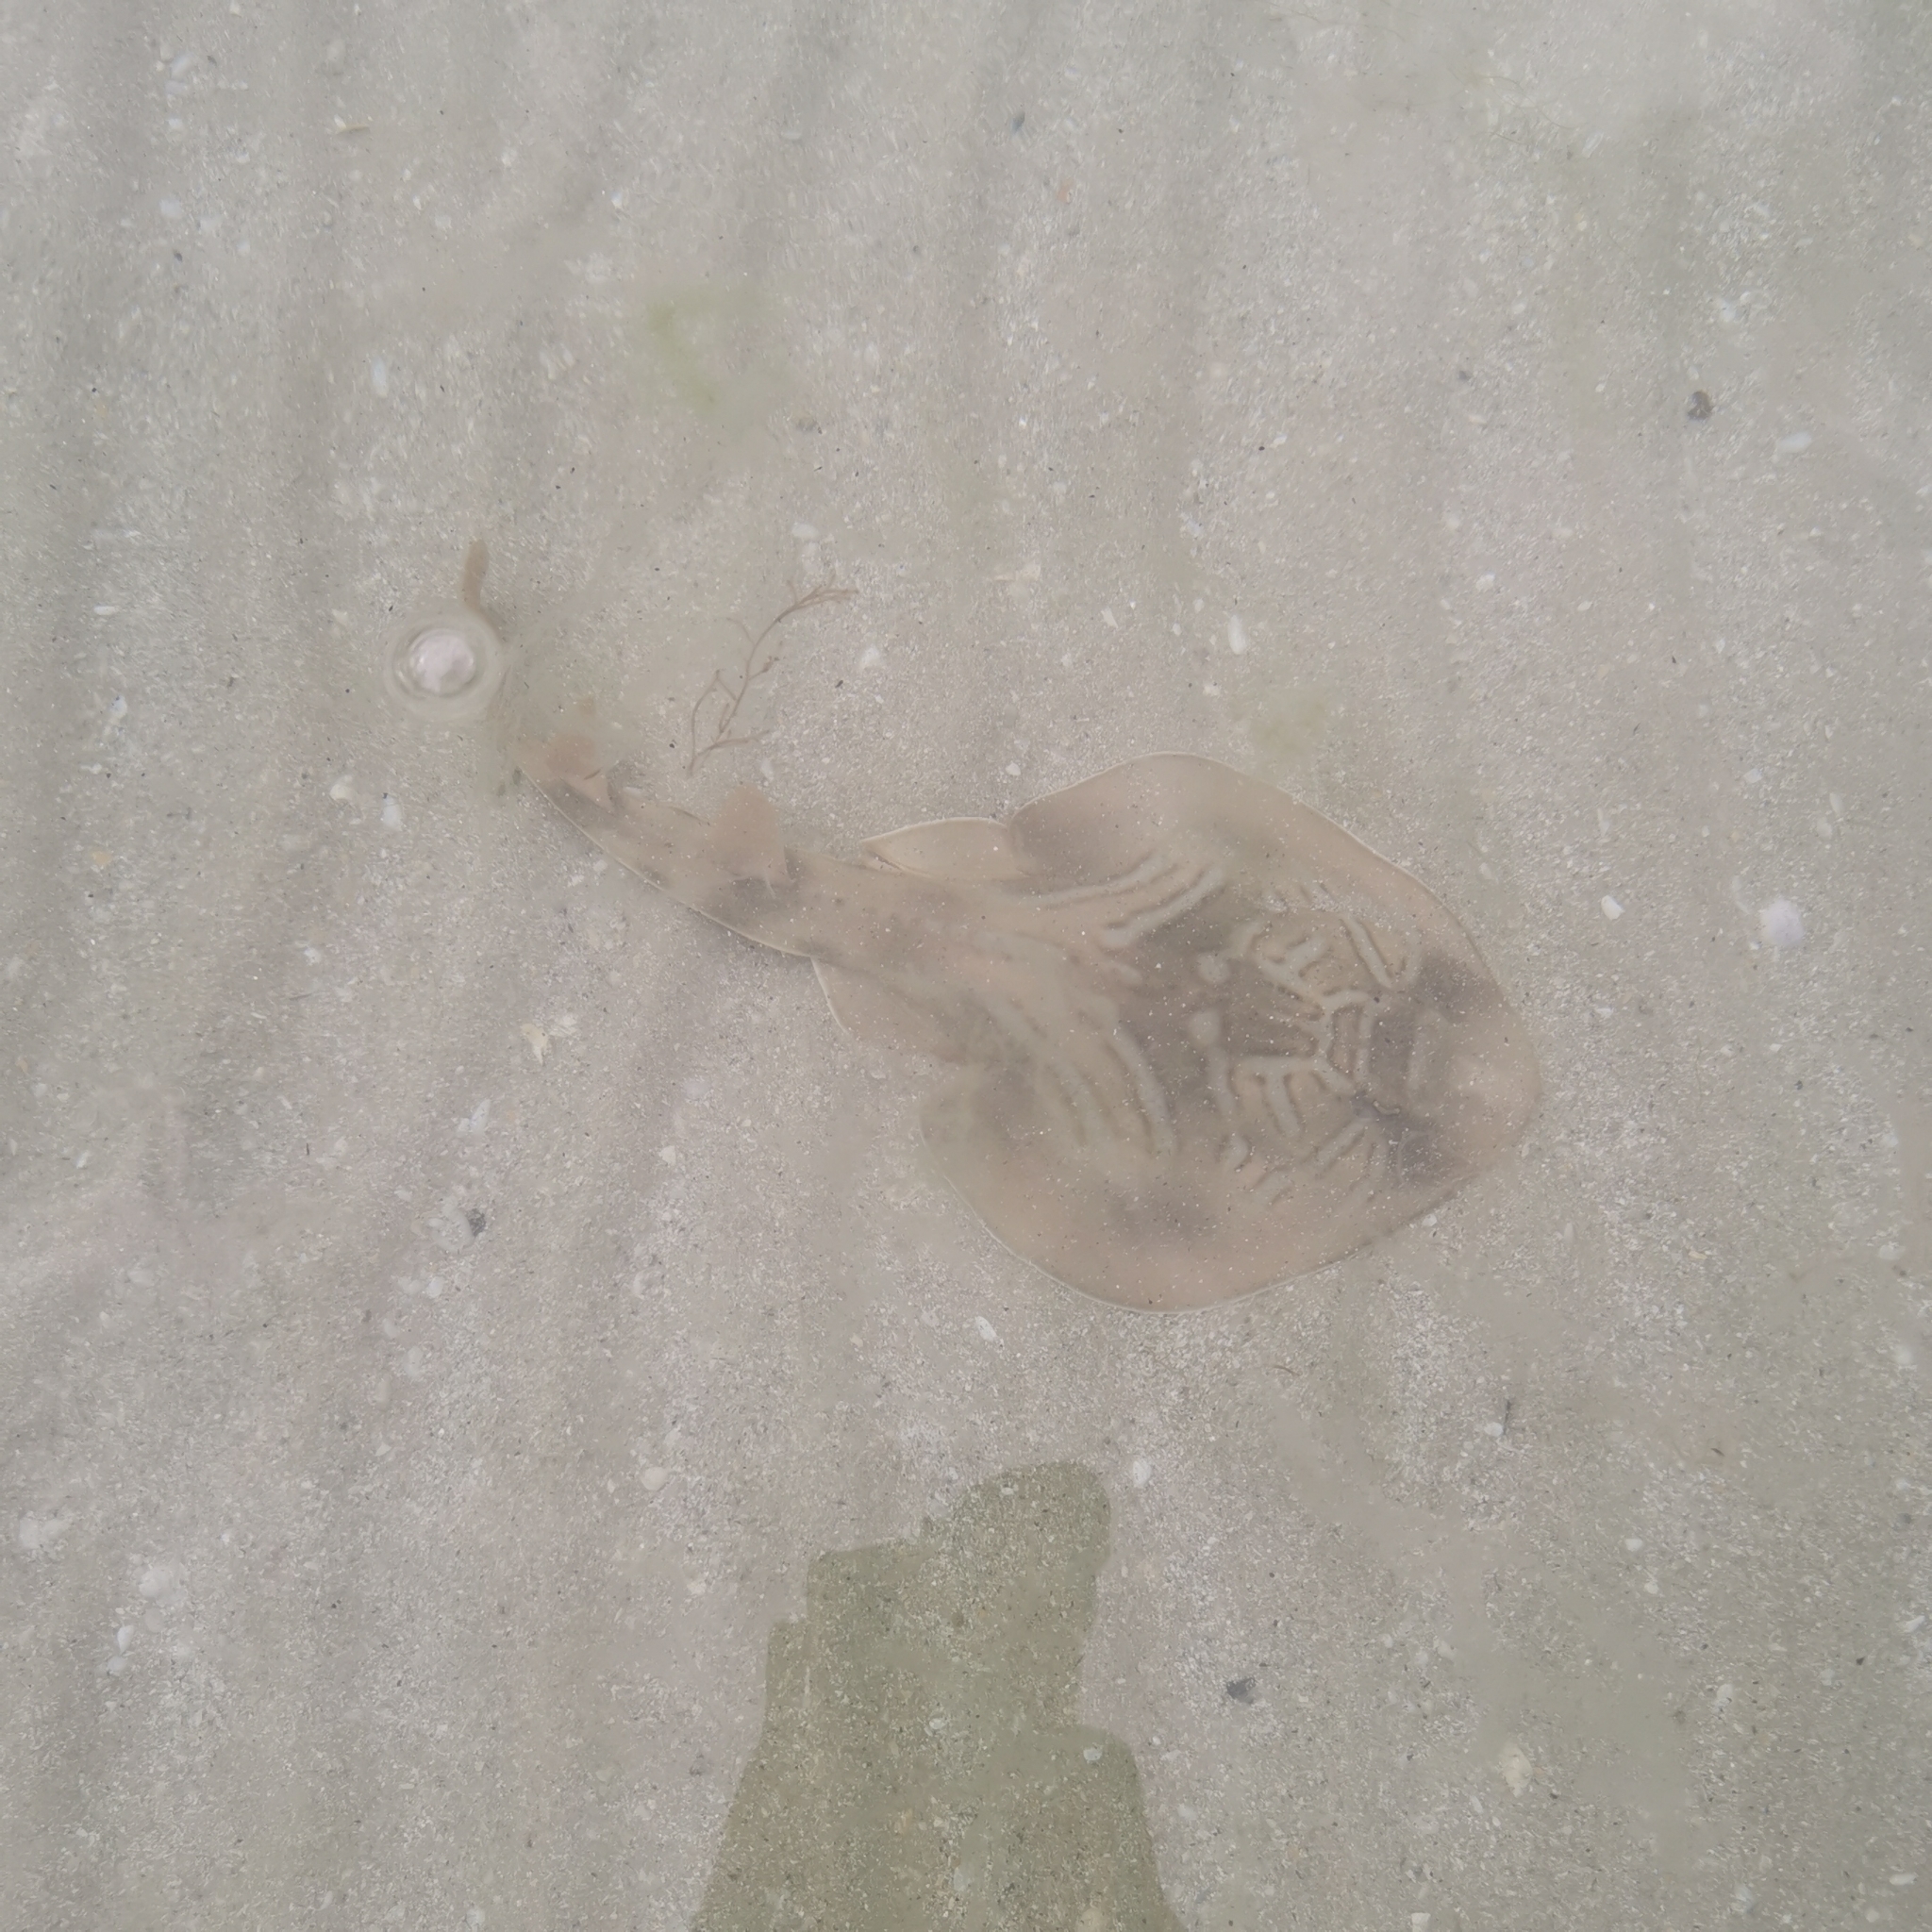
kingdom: Animalia
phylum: Chordata
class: Elasmobranchii
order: Rhinopristiformes
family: Rhinobatidae
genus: Trygonorrhina
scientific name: Trygonorrhina dumerilii
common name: Banjo shark
